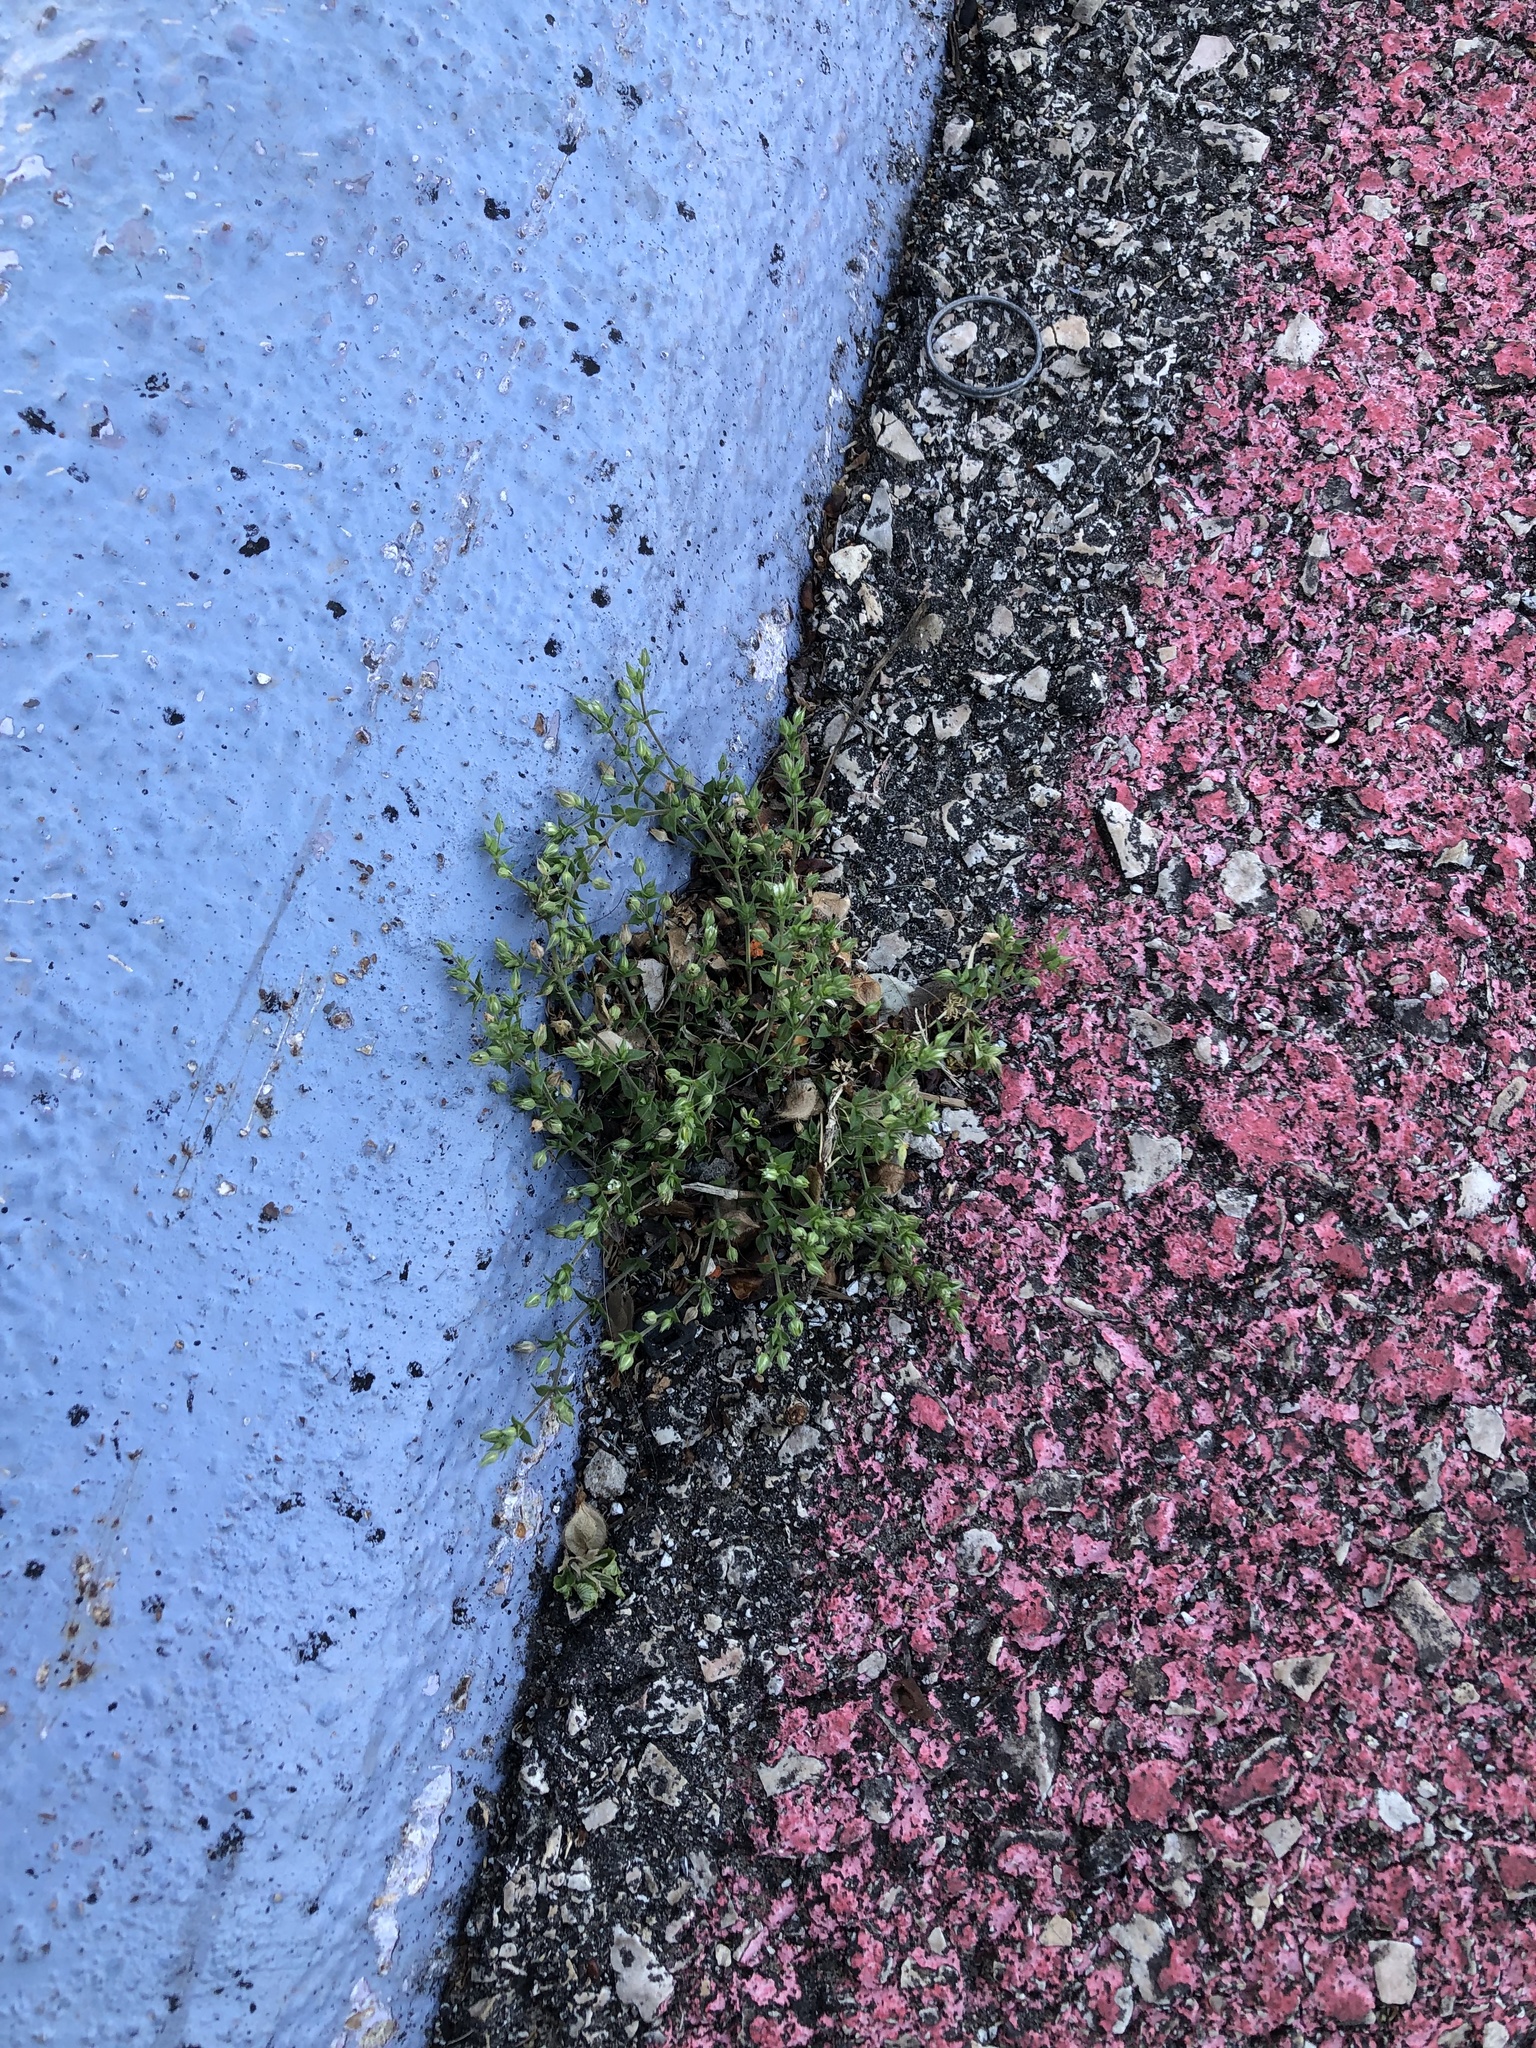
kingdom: Plantae
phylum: Tracheophyta
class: Magnoliopsida
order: Caryophyllales
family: Caryophyllaceae
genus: Arenaria
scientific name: Arenaria serpyllifolia
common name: Thyme-leaved sandwort
